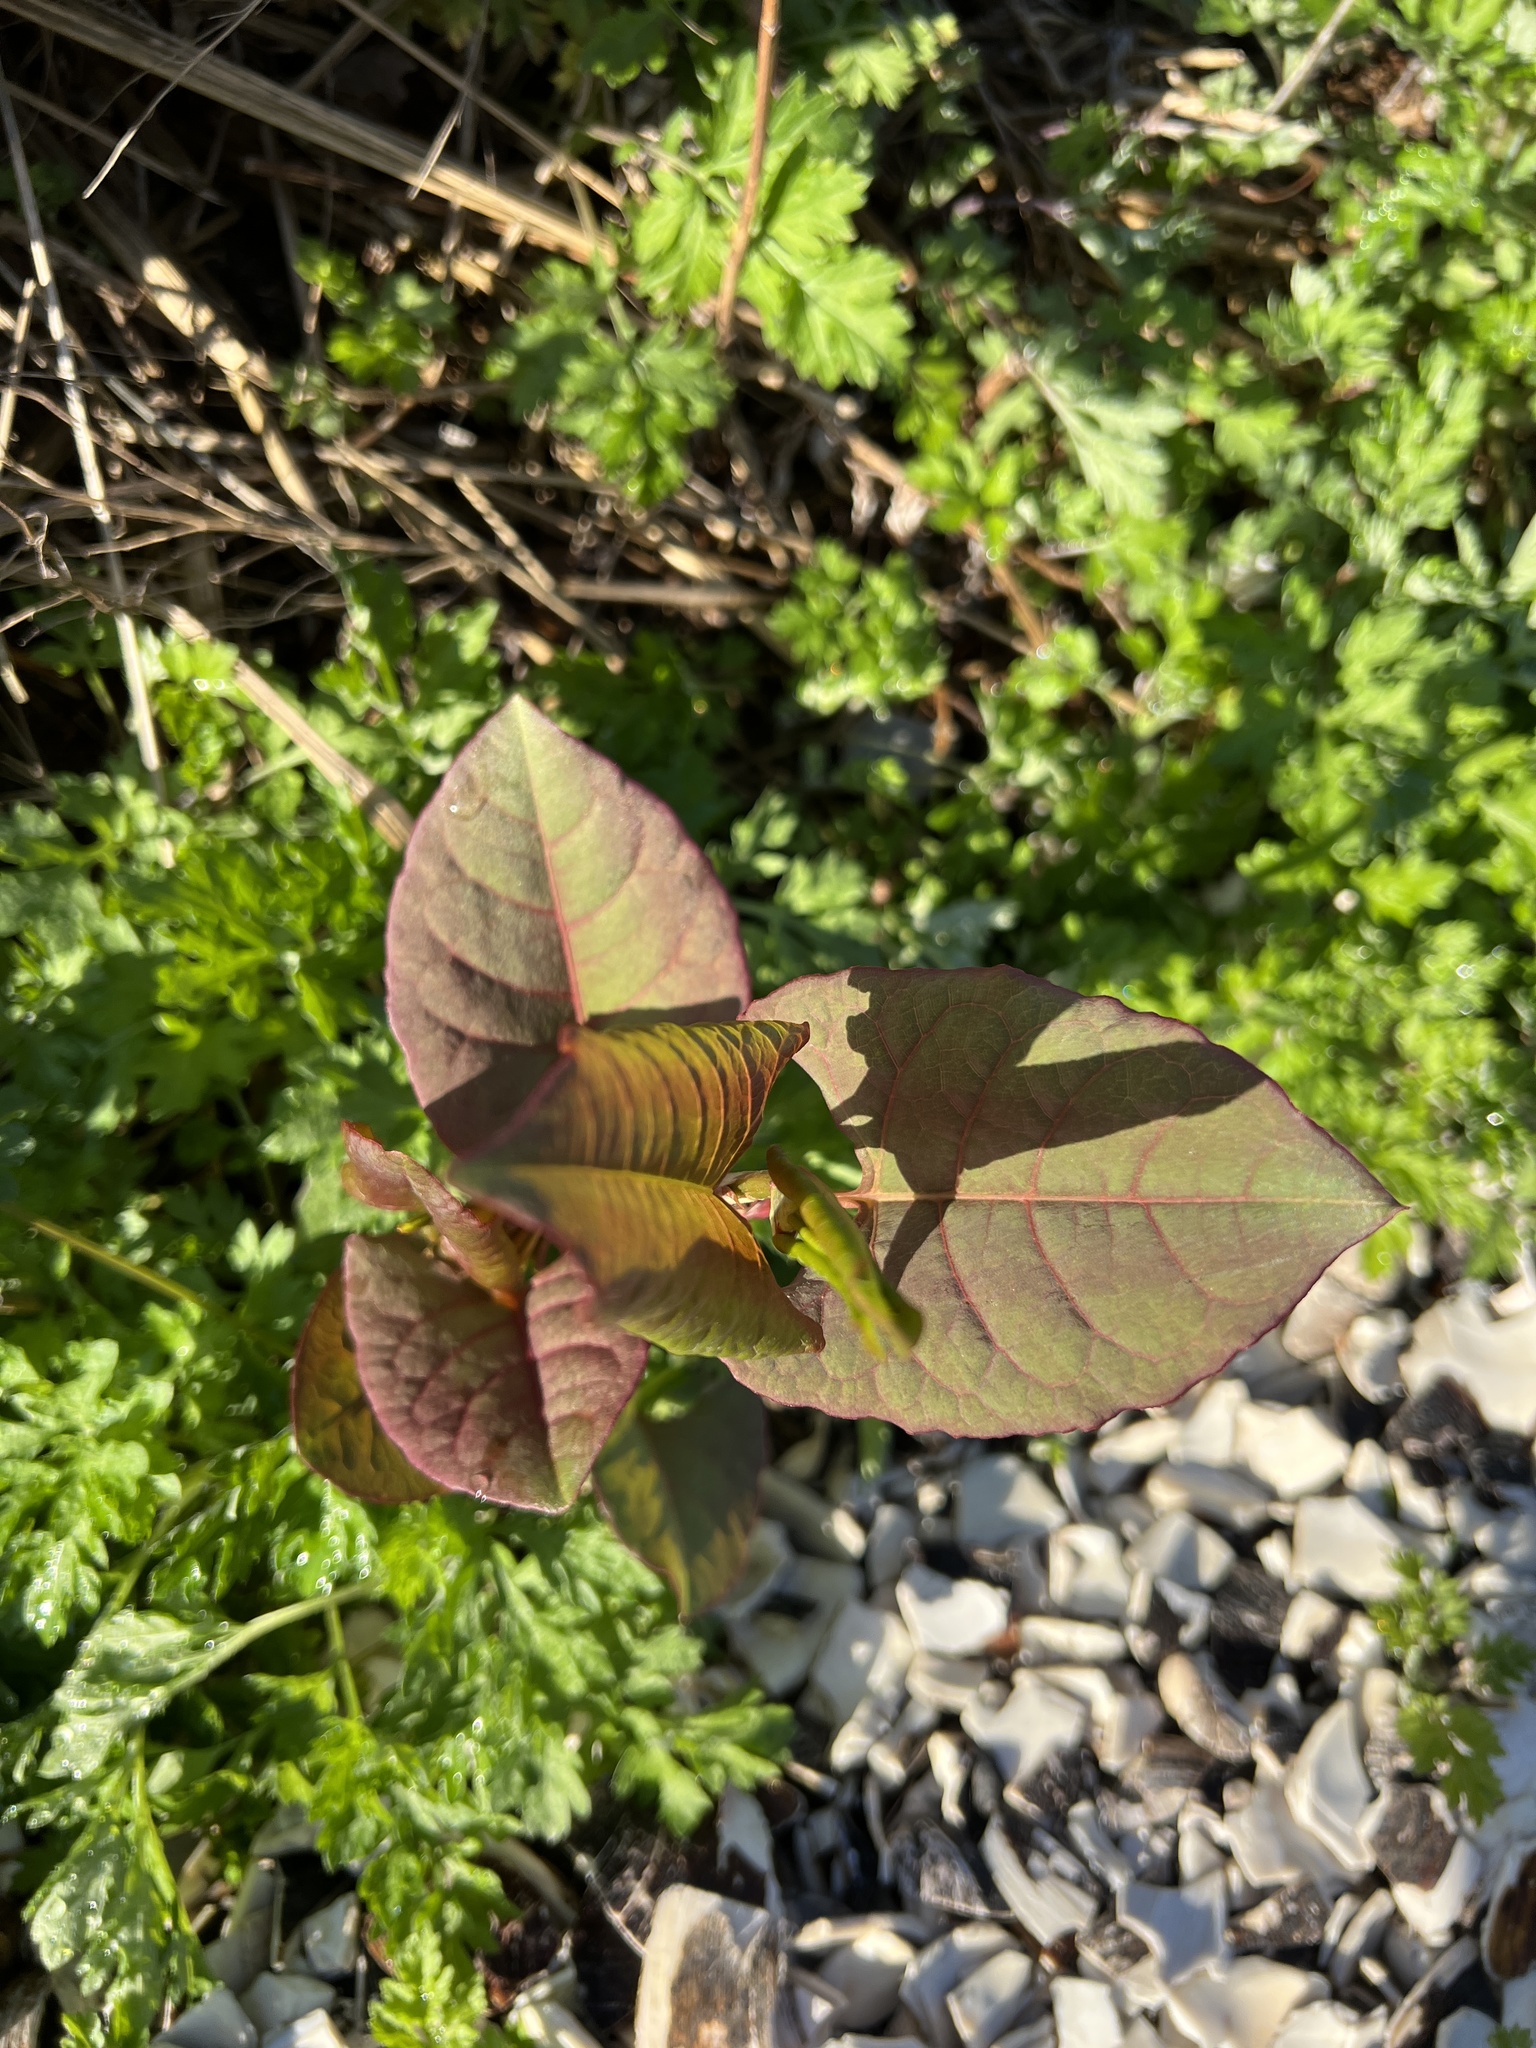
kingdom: Plantae
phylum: Tracheophyta
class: Magnoliopsida
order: Caryophyllales
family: Polygonaceae
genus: Reynoutria
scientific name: Reynoutria
